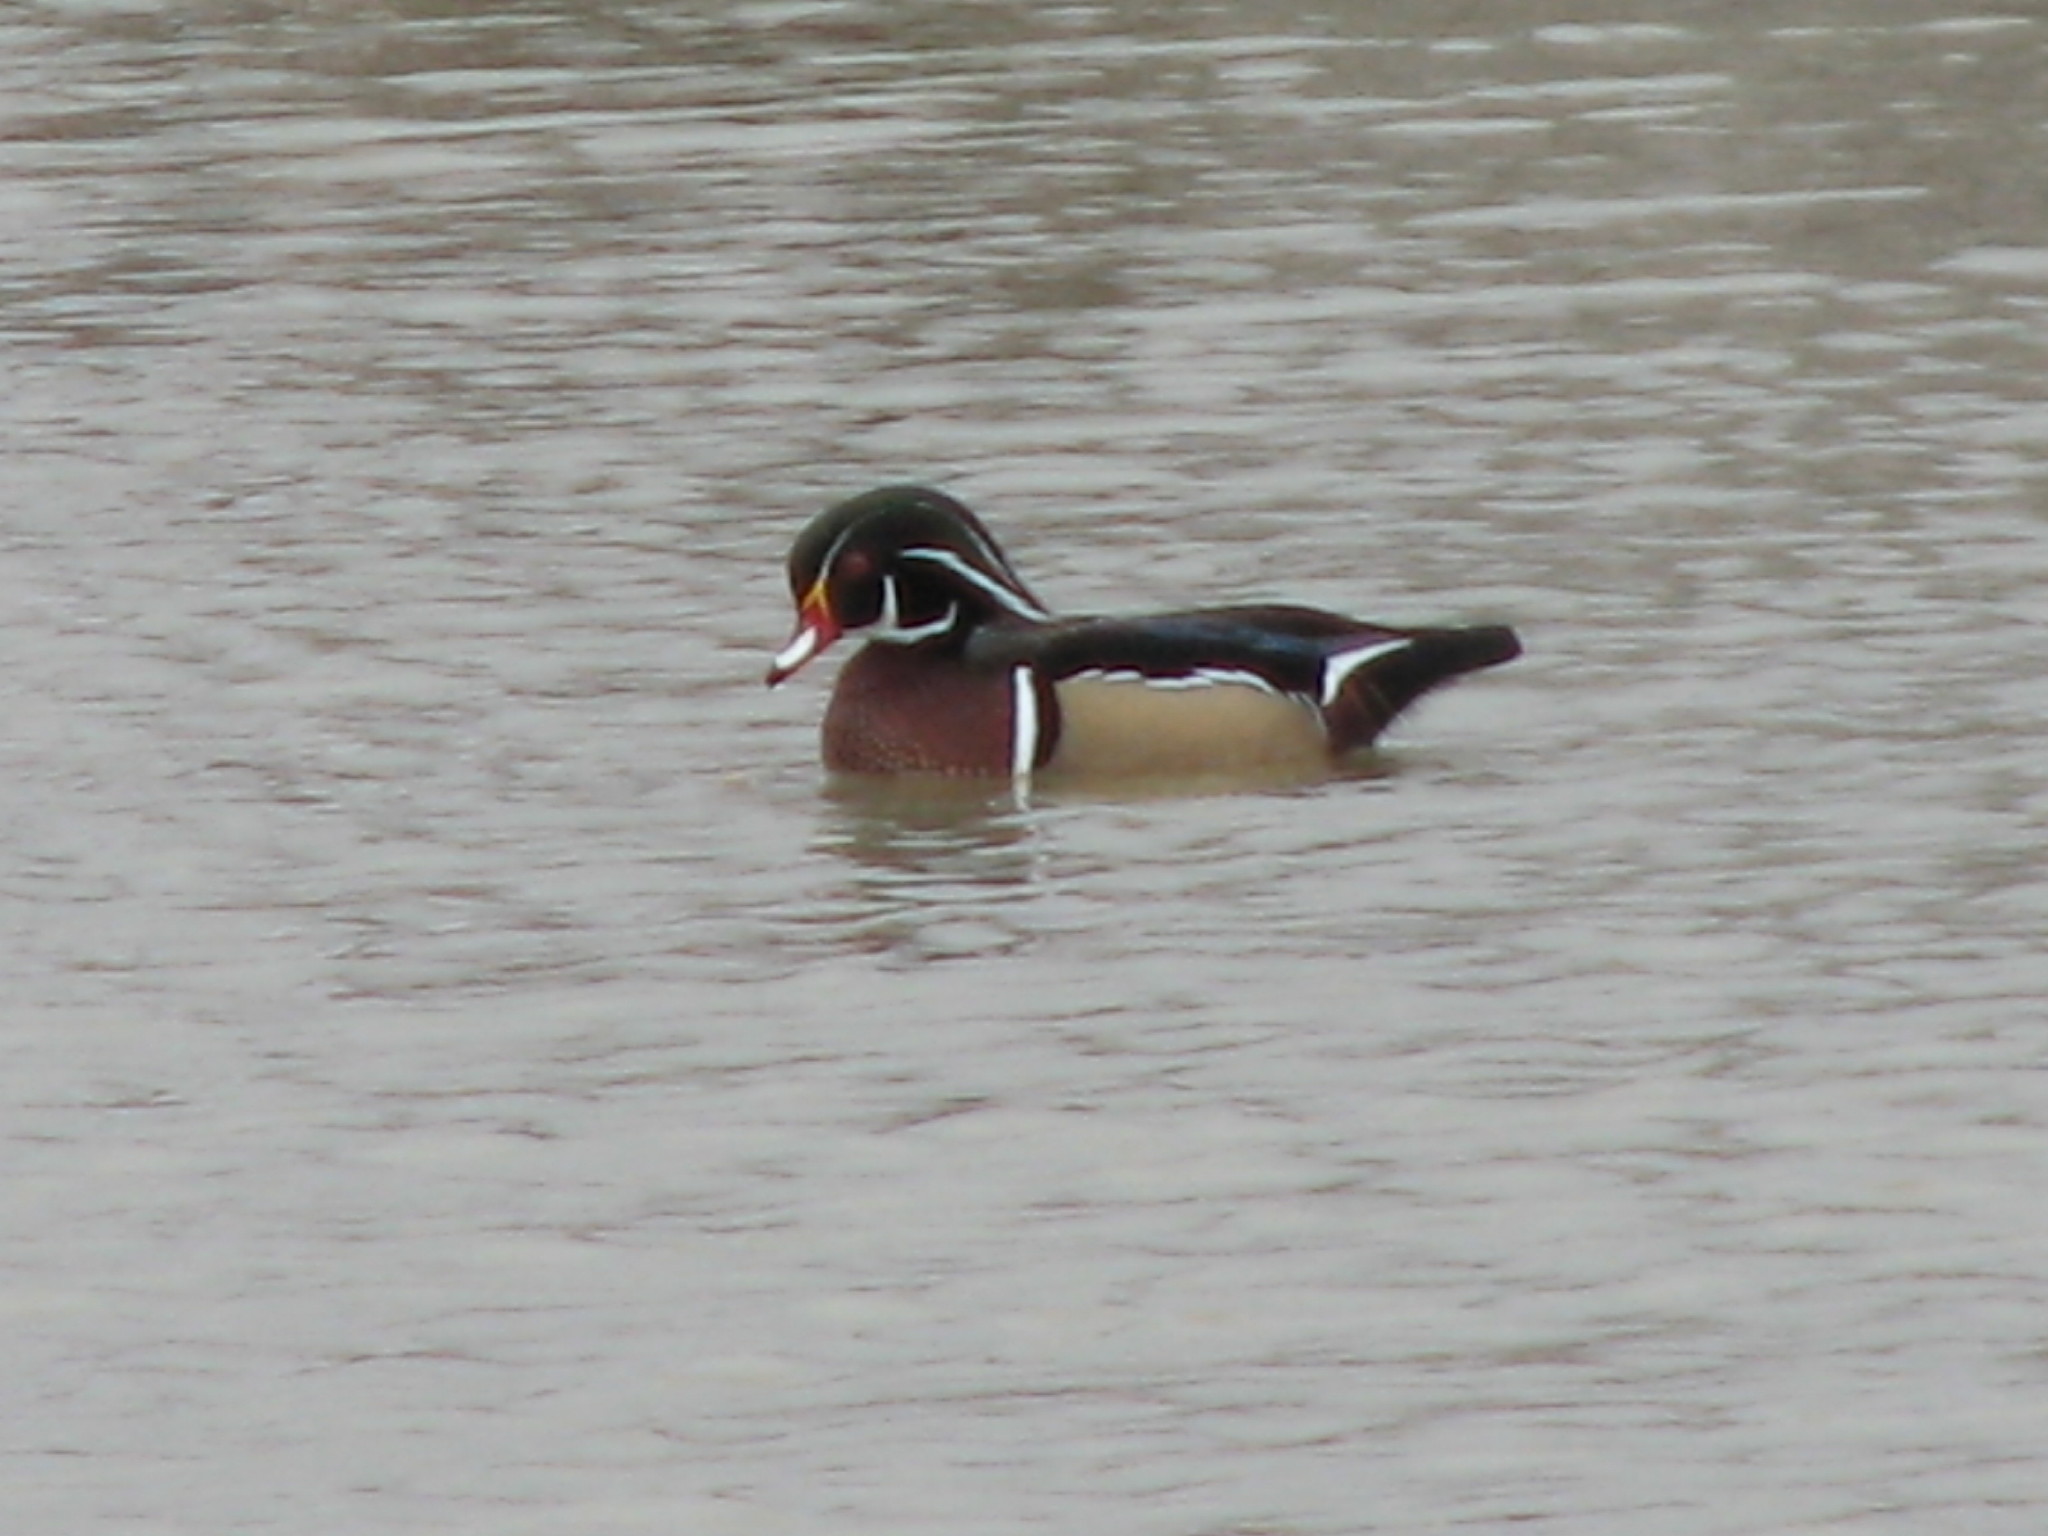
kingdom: Animalia
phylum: Chordata
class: Aves
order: Anseriformes
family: Anatidae
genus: Aix
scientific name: Aix sponsa
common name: Wood duck
